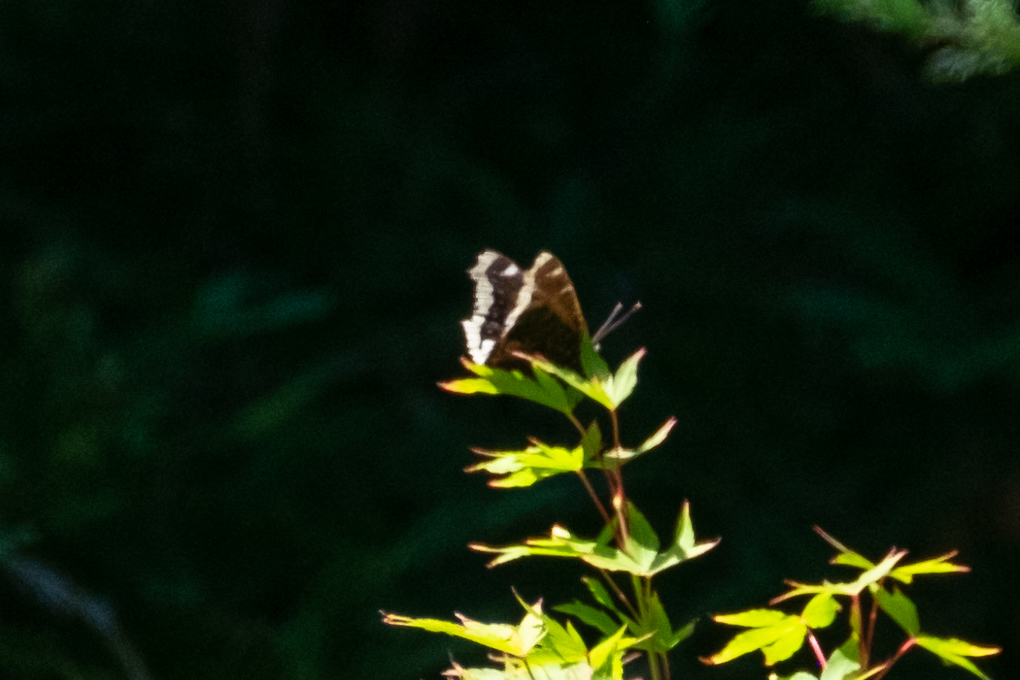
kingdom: Animalia
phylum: Arthropoda
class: Insecta
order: Lepidoptera
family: Nymphalidae
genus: Nymphalis
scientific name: Nymphalis antiopa
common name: Camberwell beauty
